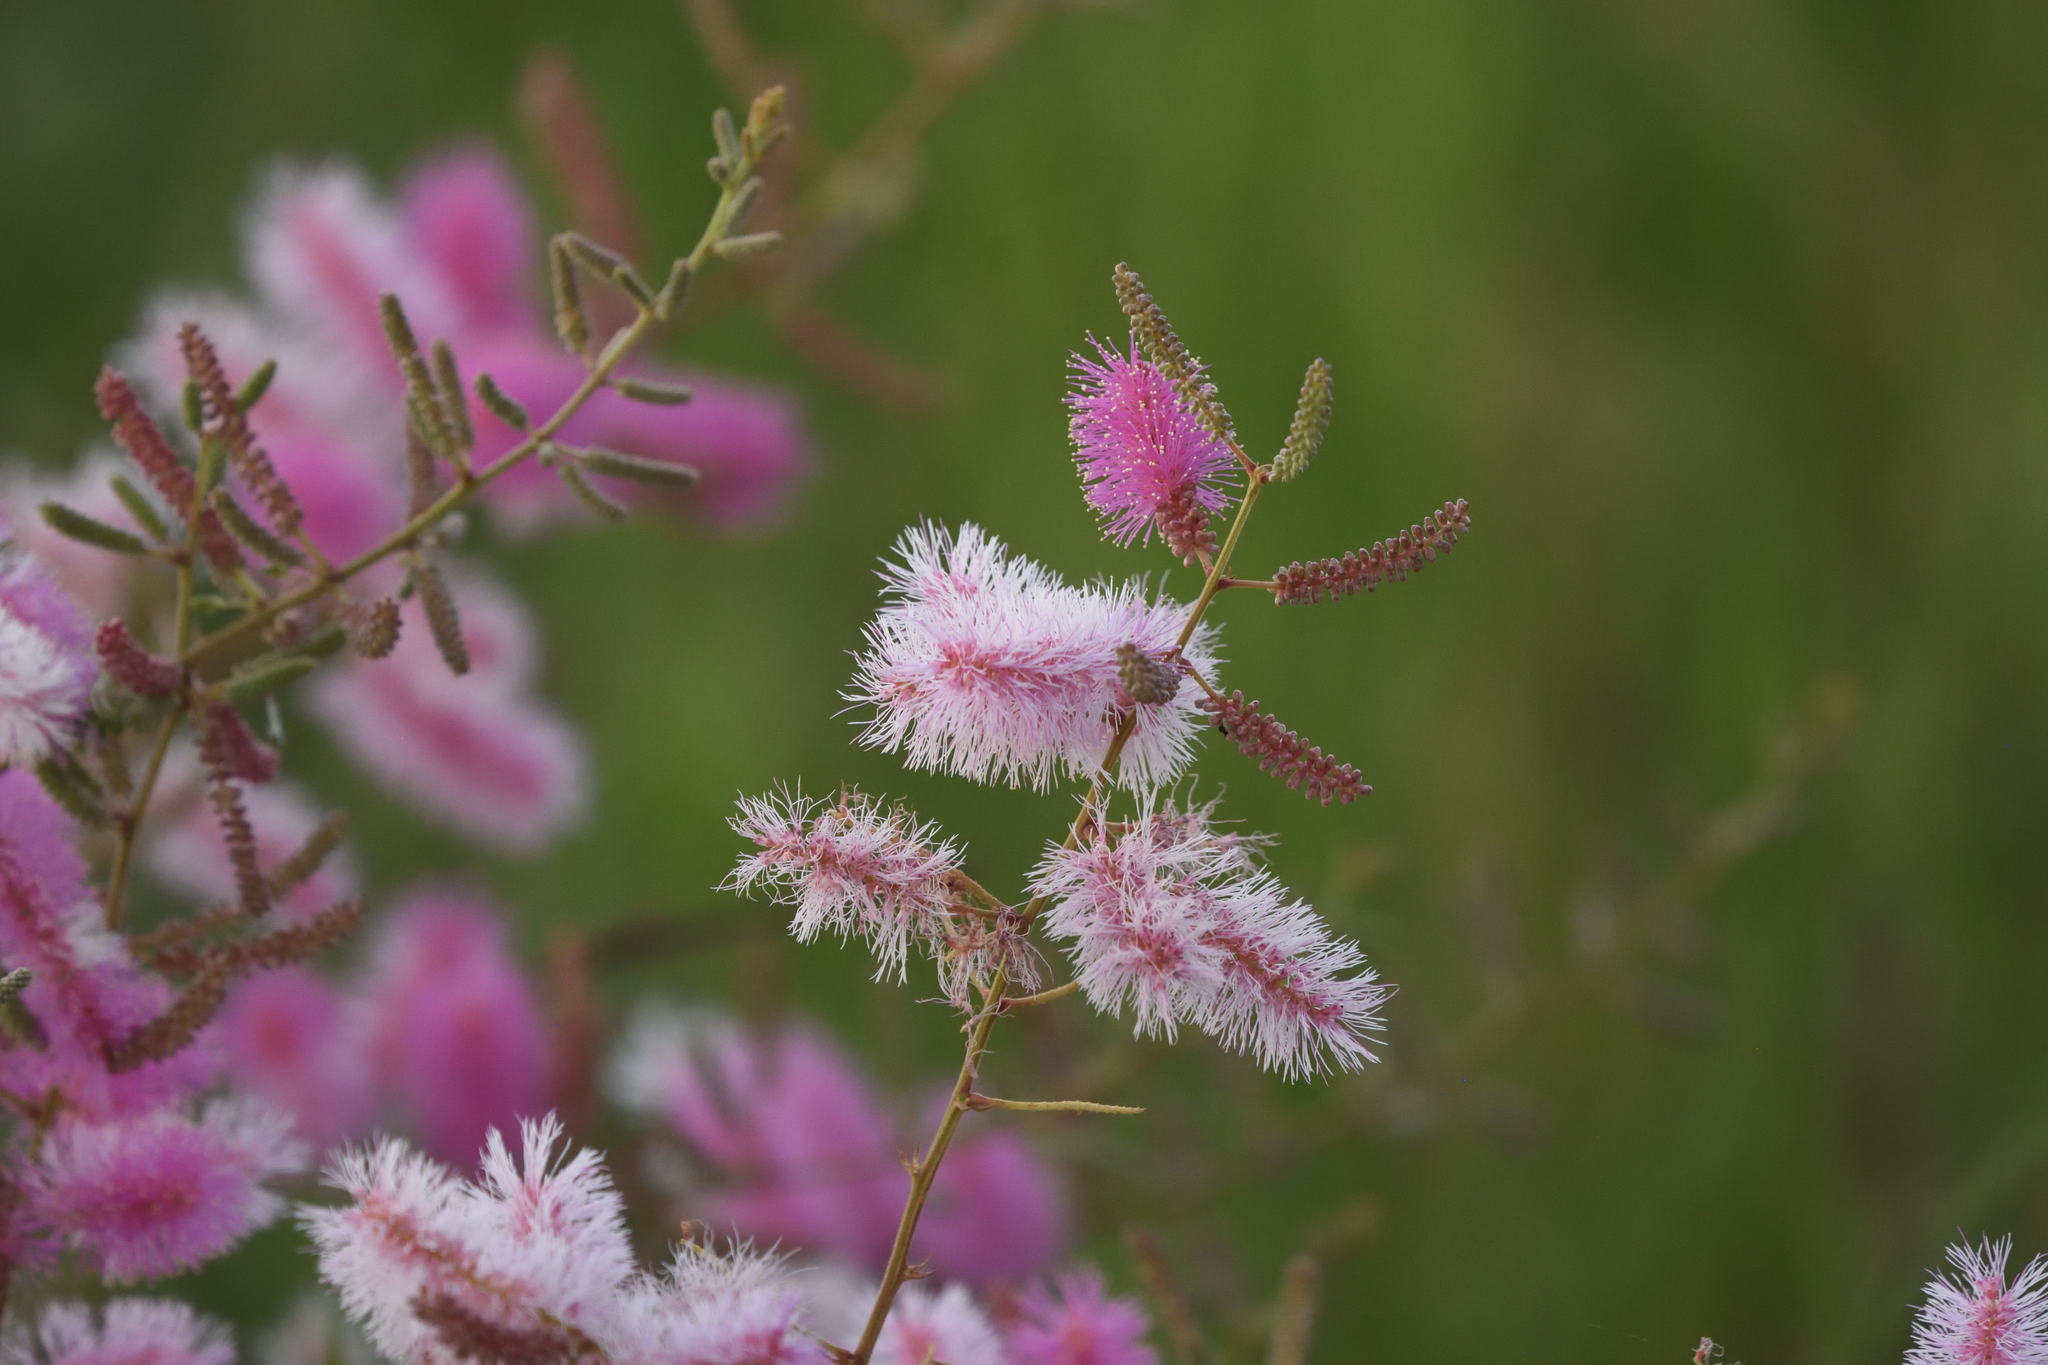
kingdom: Plantae
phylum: Tracheophyta
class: Magnoliopsida
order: Fabales
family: Fabaceae
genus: Mimosa
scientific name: Mimosa dysocarpa
